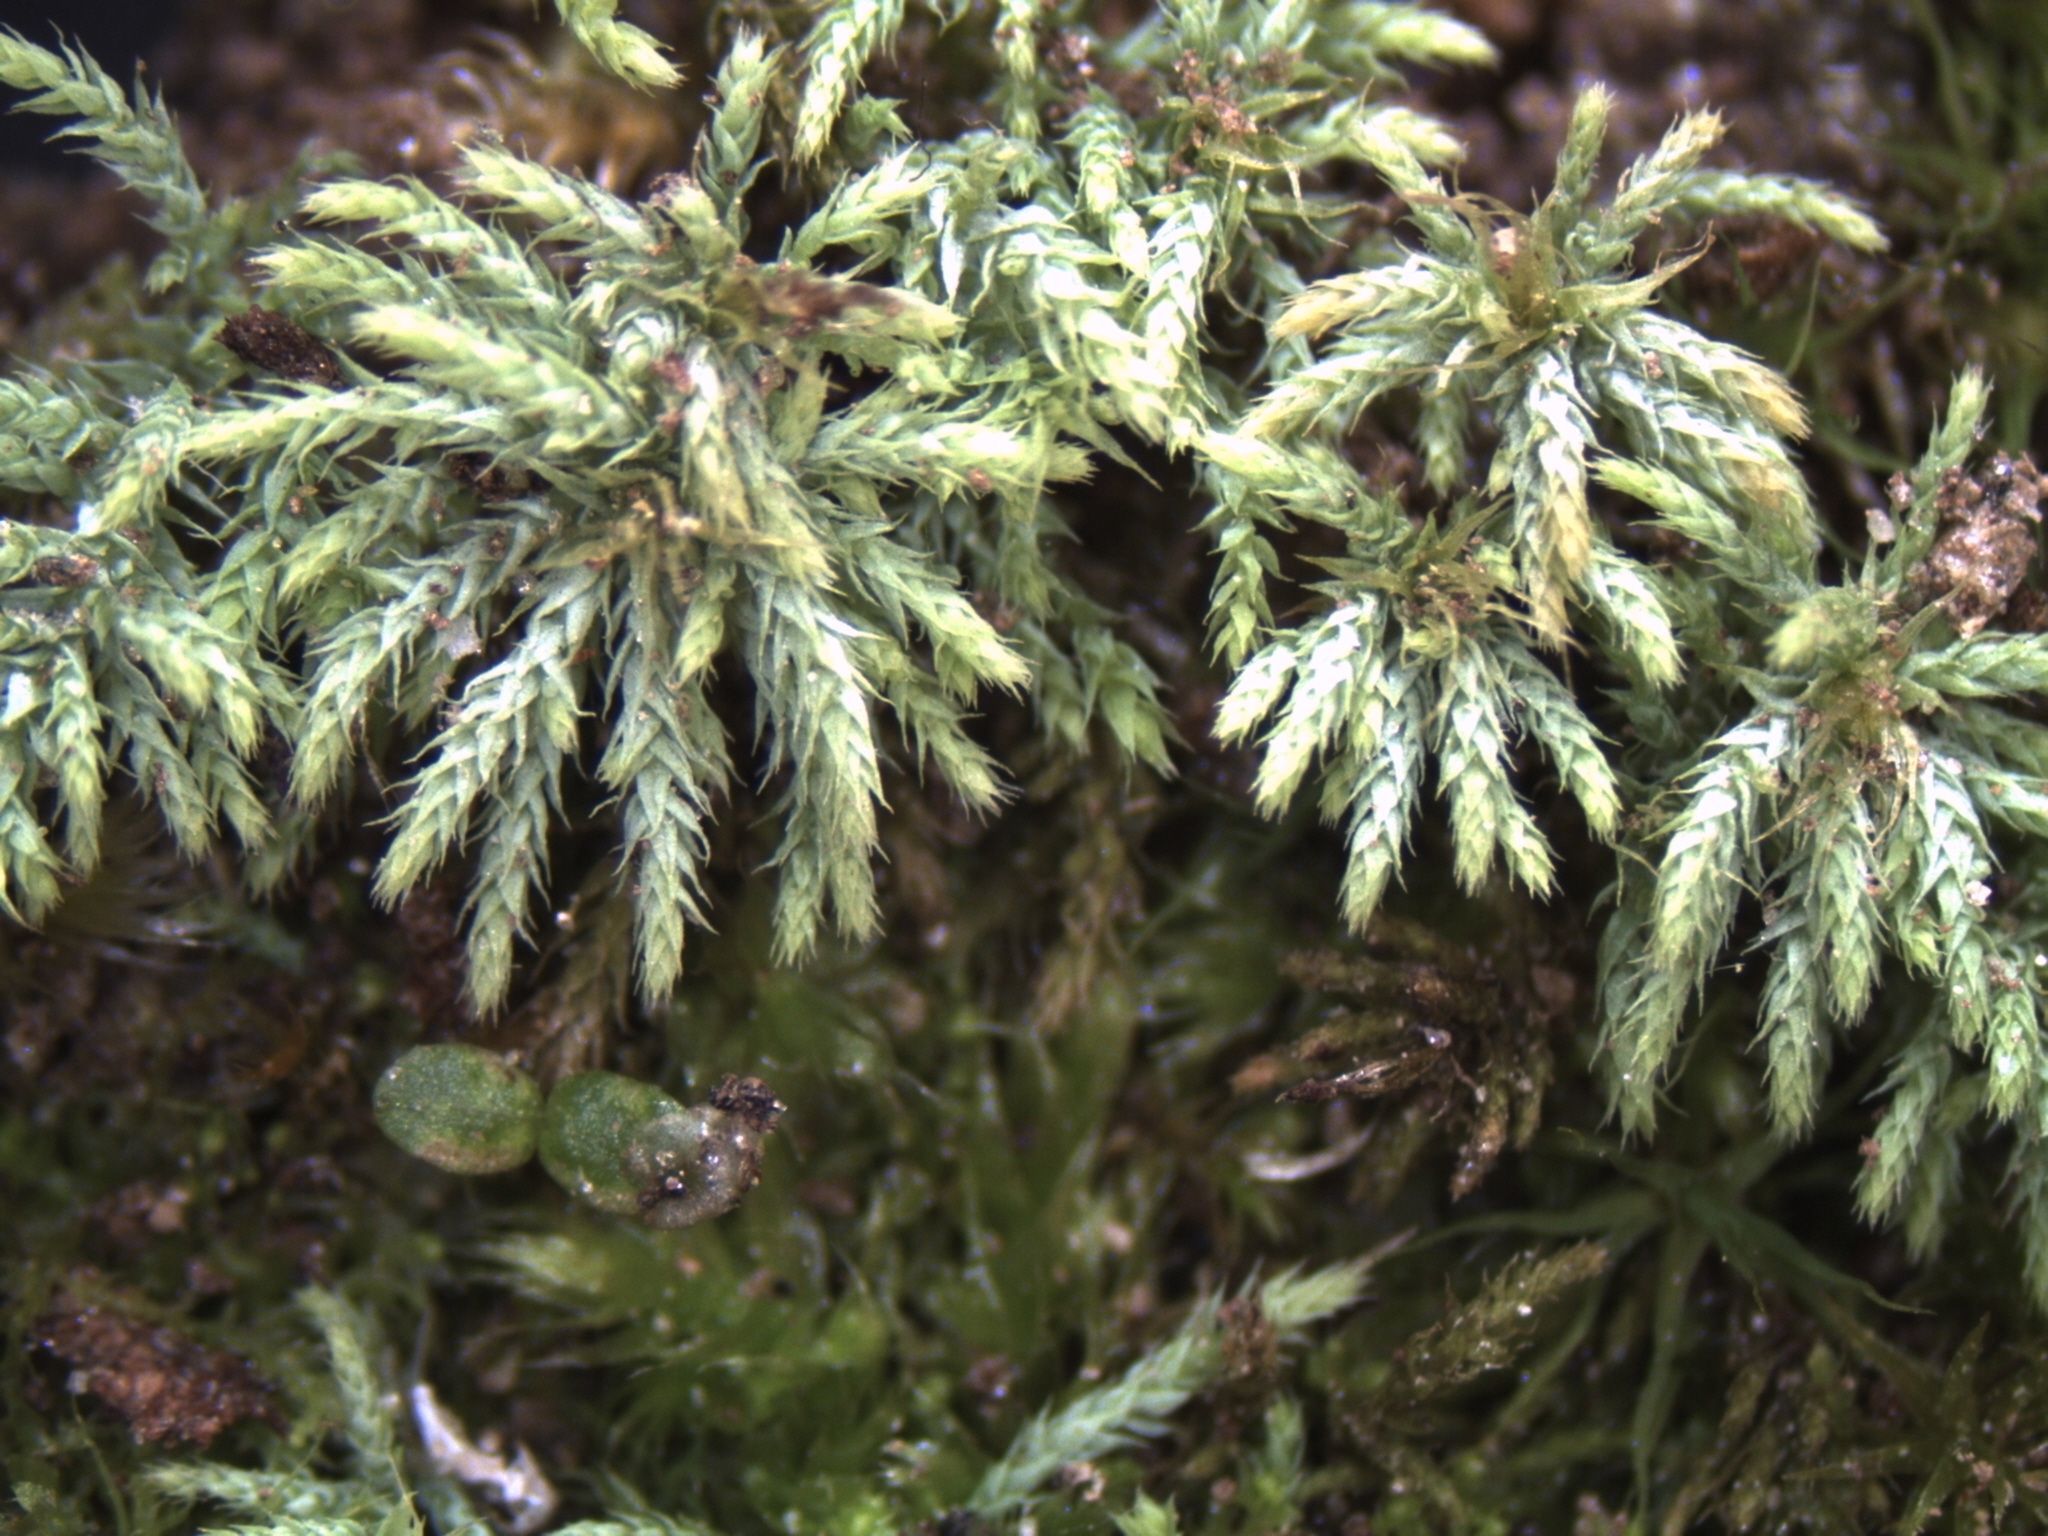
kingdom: Plantae
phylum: Bryophyta
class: Bryopsida
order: Bartramiales
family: Bartramiaceae
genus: Philonotis
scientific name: Philonotis scabrifolia
